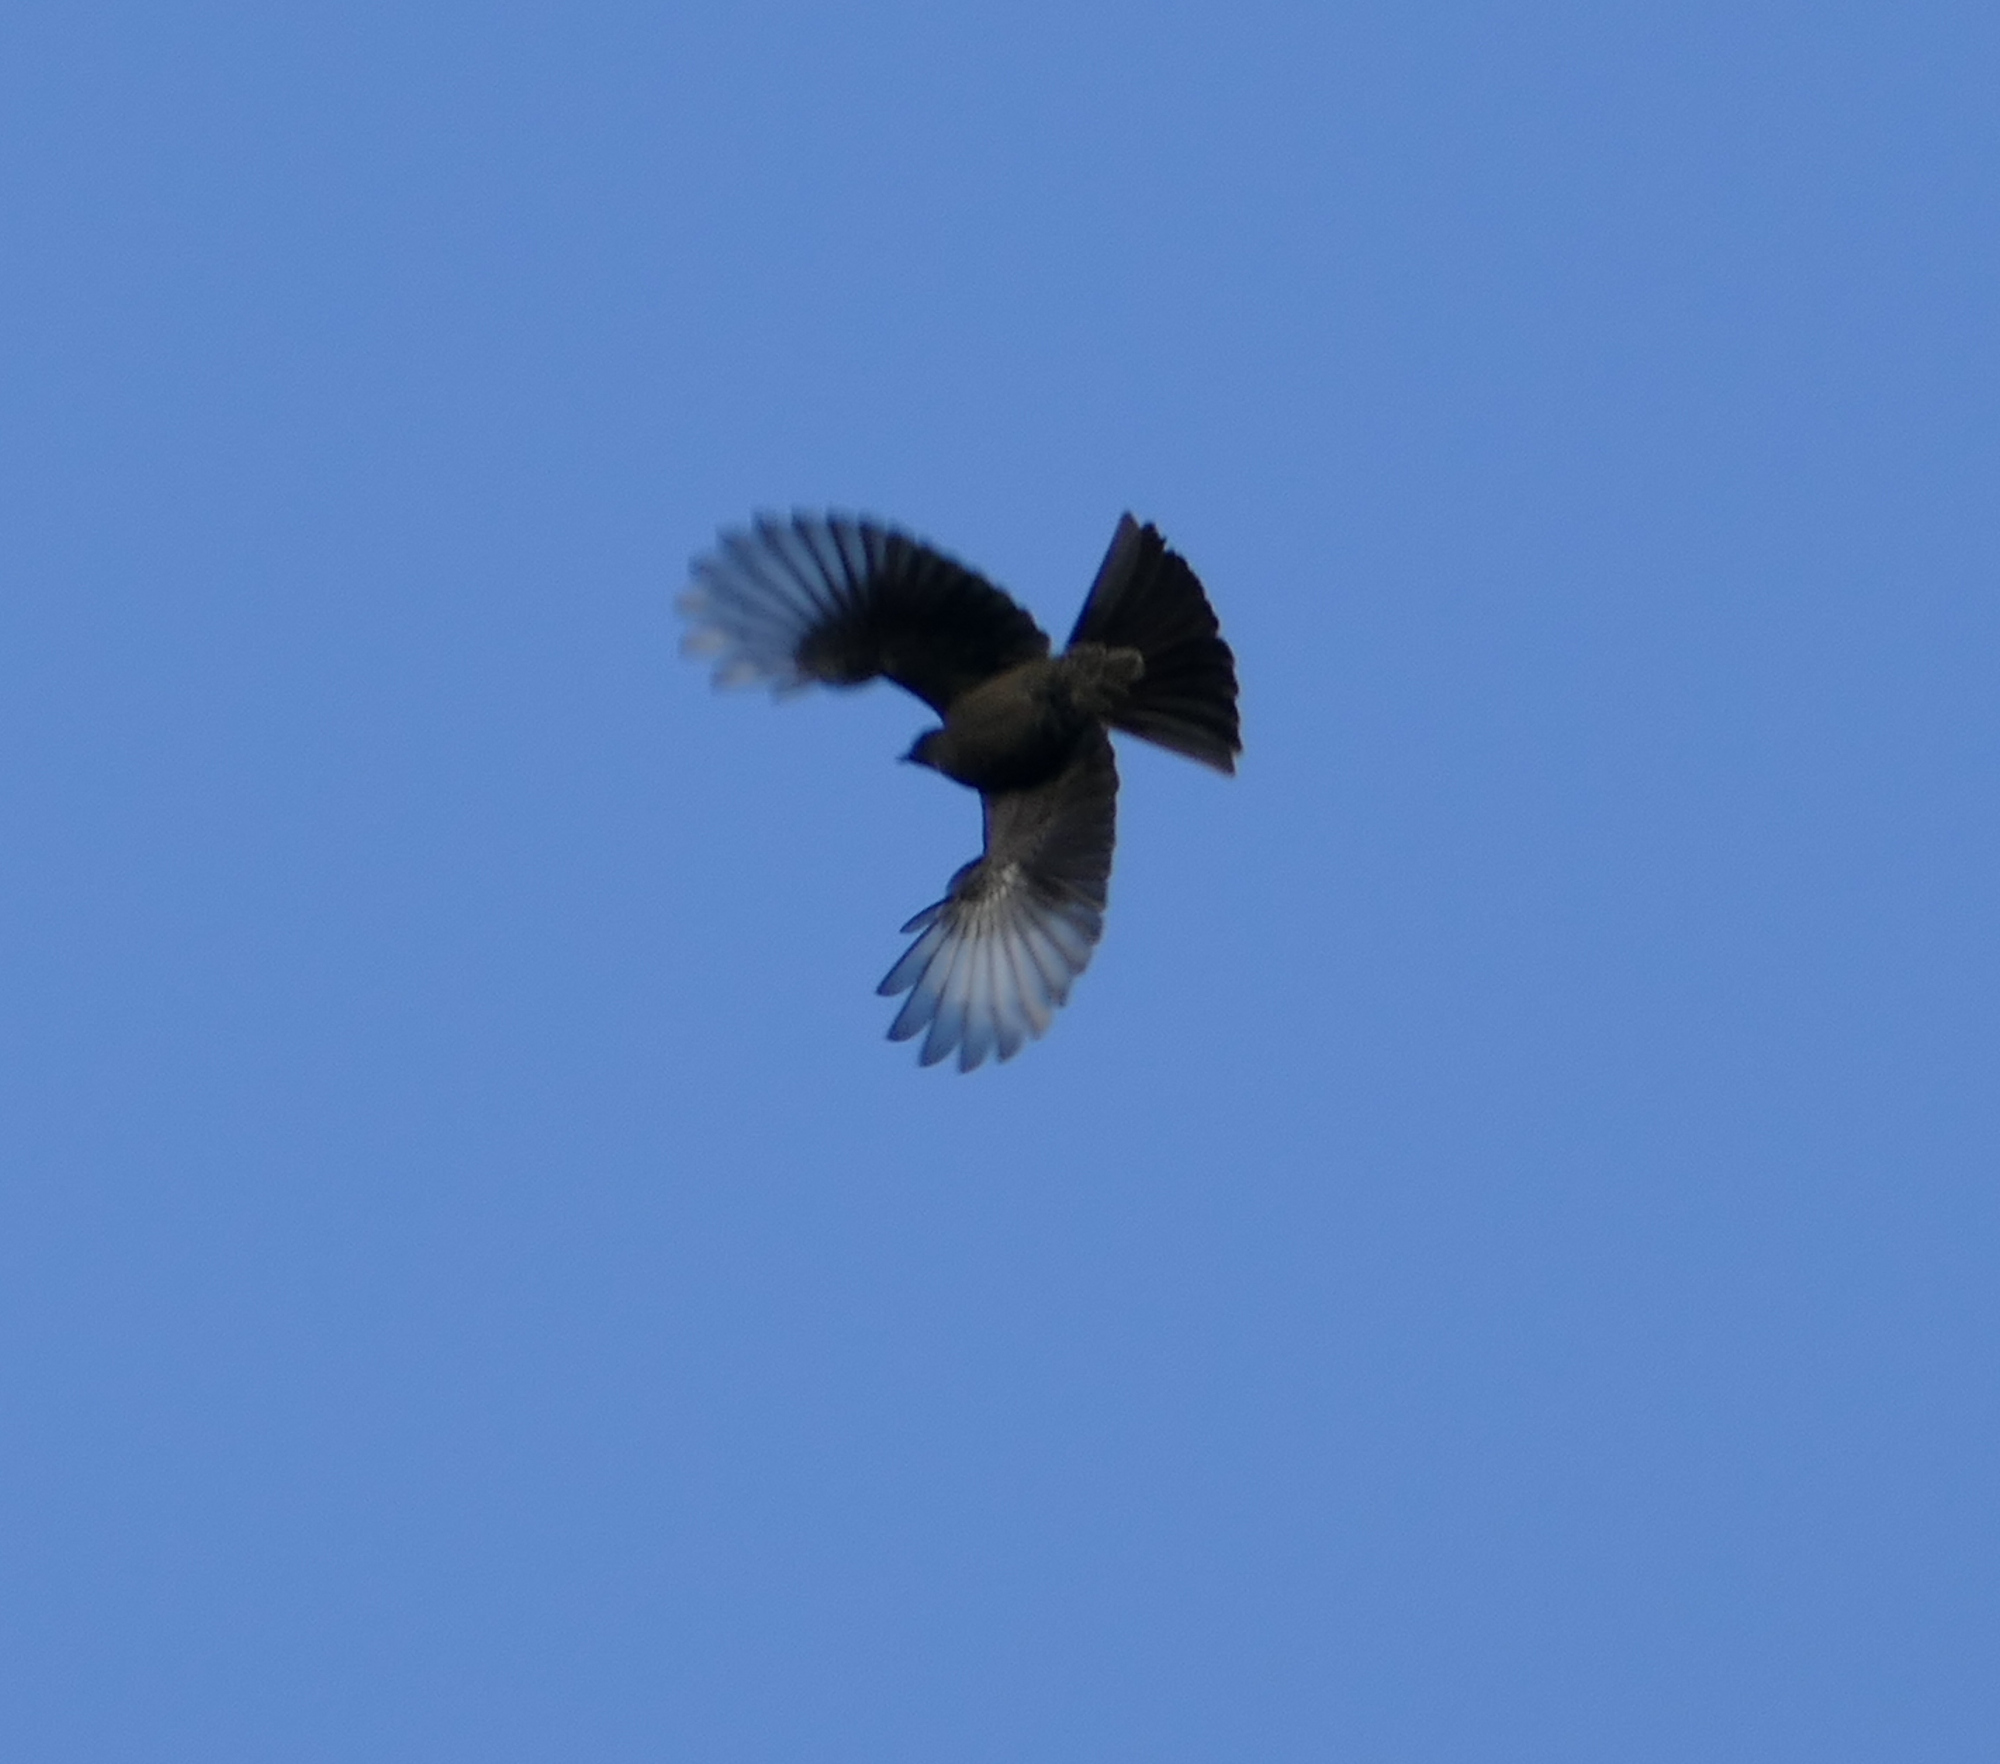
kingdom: Animalia
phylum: Chordata
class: Aves
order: Passeriformes
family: Ptilogonatidae
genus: Phainopepla
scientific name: Phainopepla nitens
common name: Phainopepla
